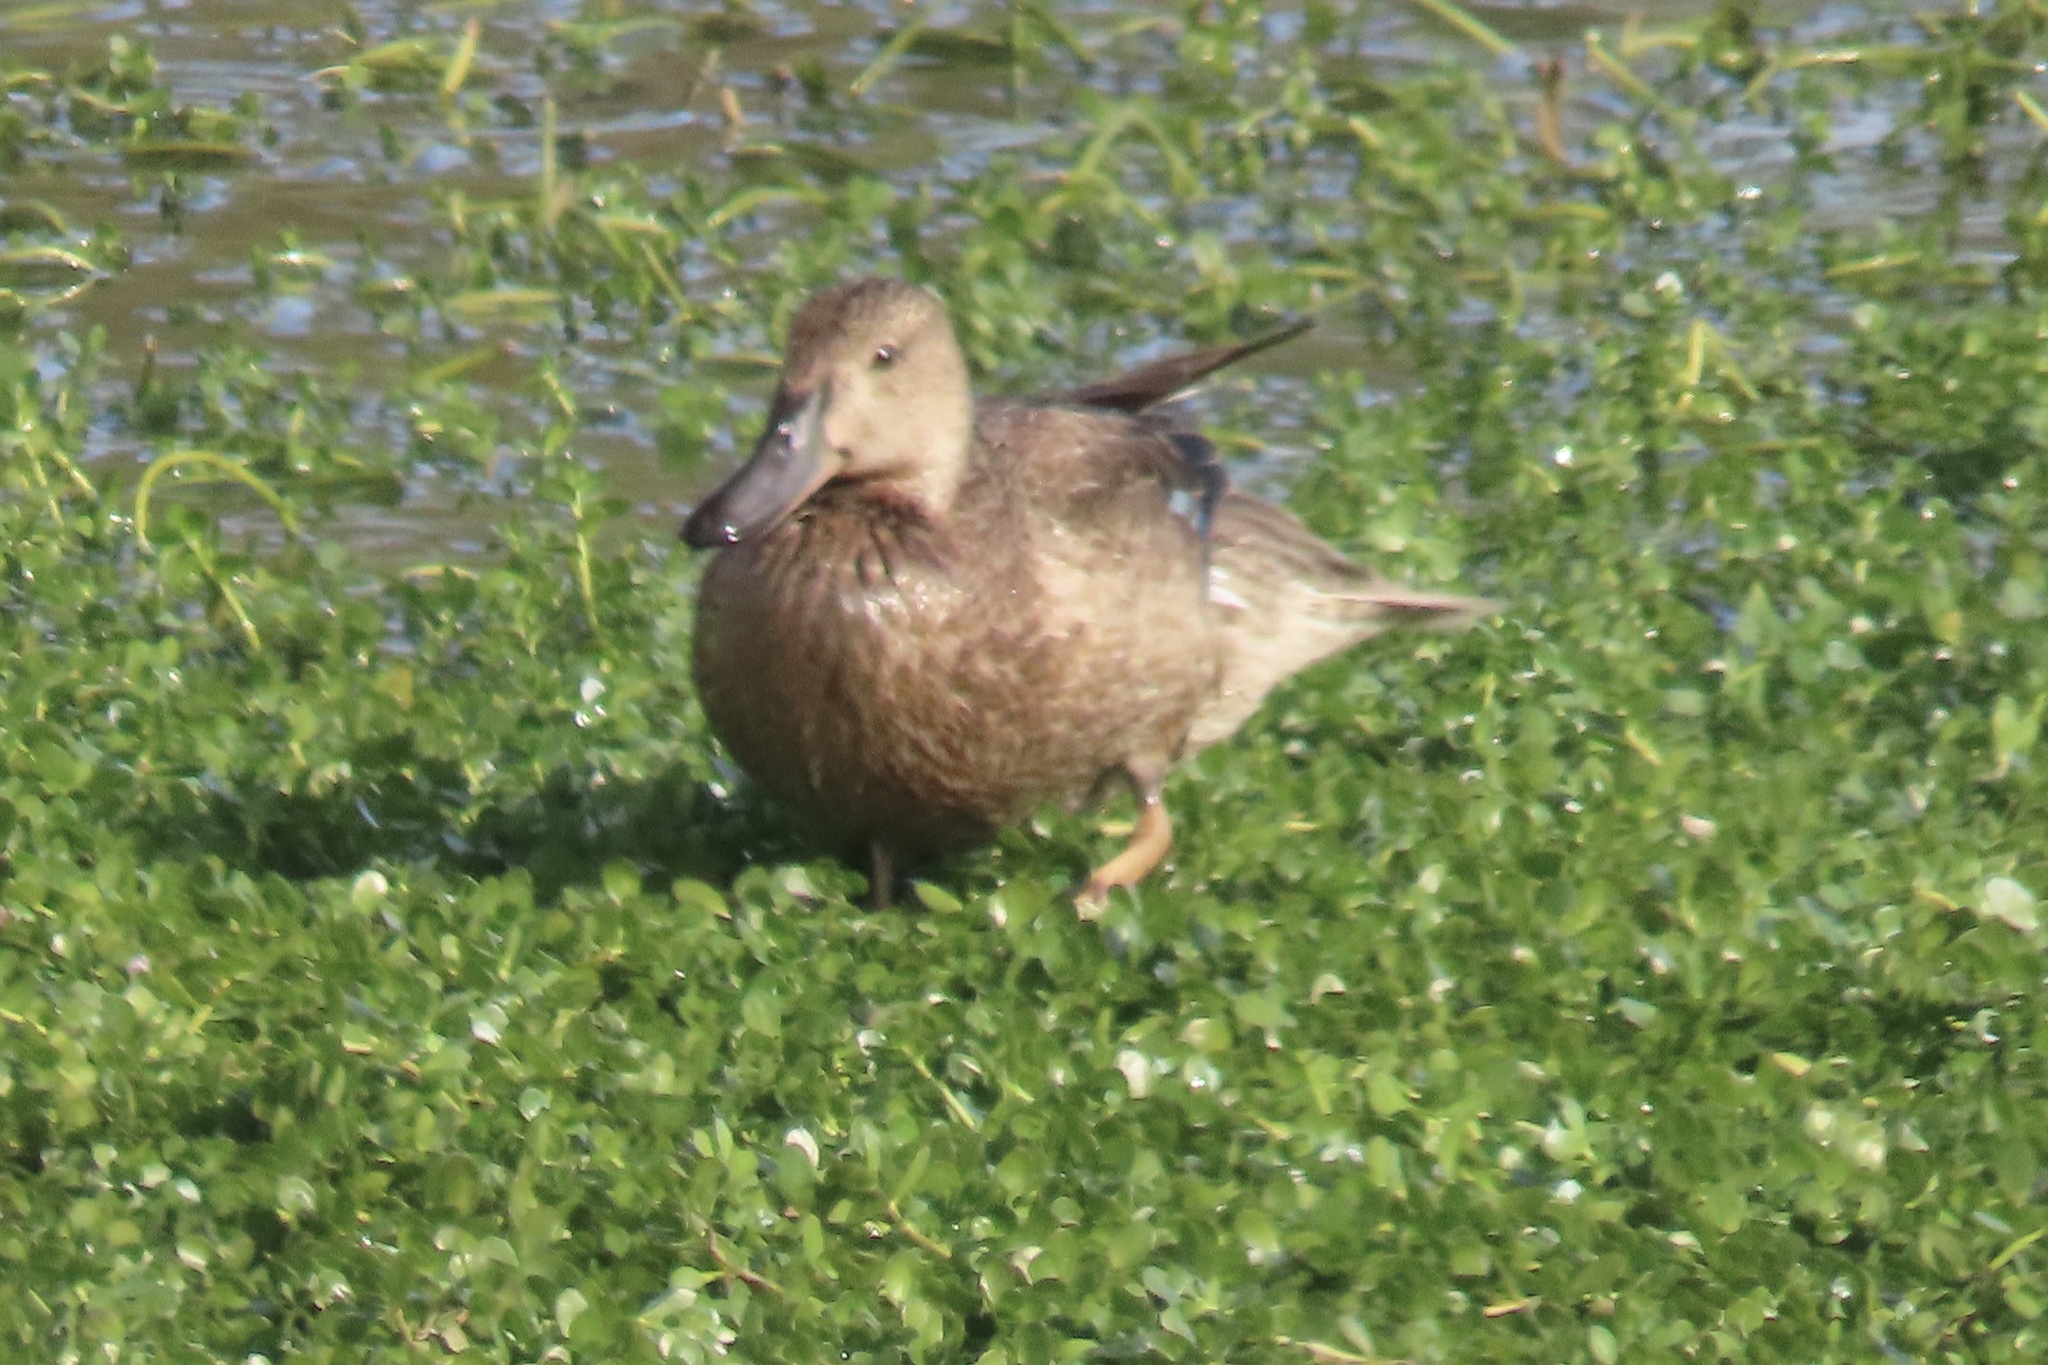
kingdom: Animalia
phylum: Chordata
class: Aves
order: Anseriformes
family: Anatidae
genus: Spatula
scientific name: Spatula cyanoptera
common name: Cinnamon teal
